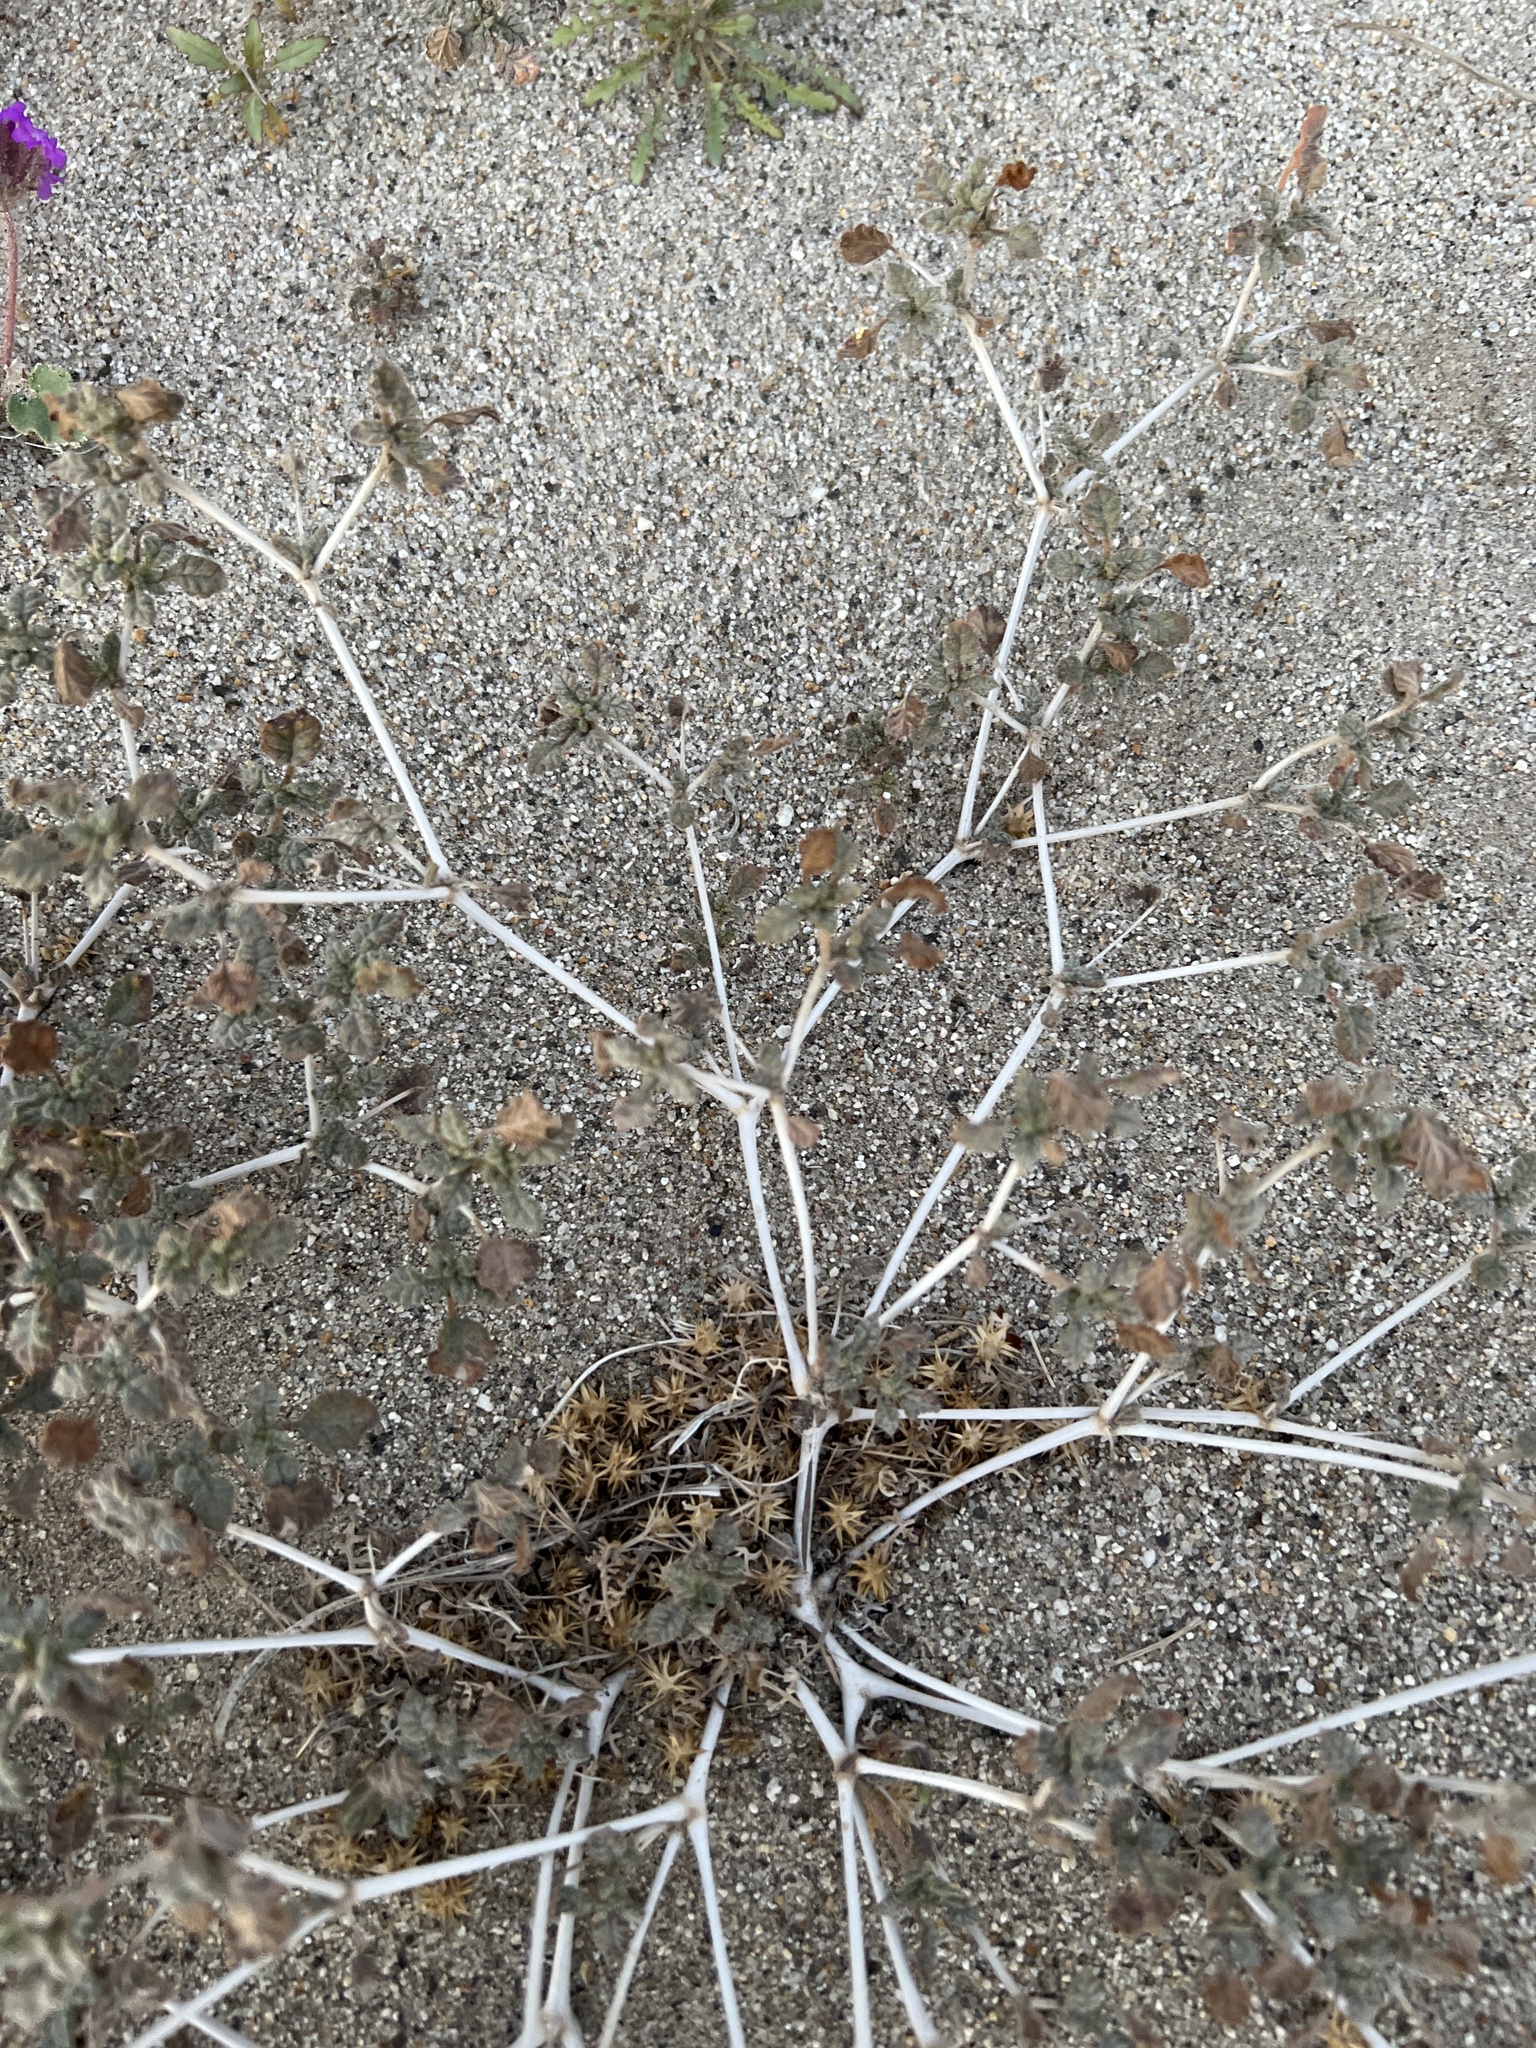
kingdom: Plantae
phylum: Tracheophyta
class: Magnoliopsida
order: Boraginales
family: Ehretiaceae
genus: Tiquilia
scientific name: Tiquilia palmeri
